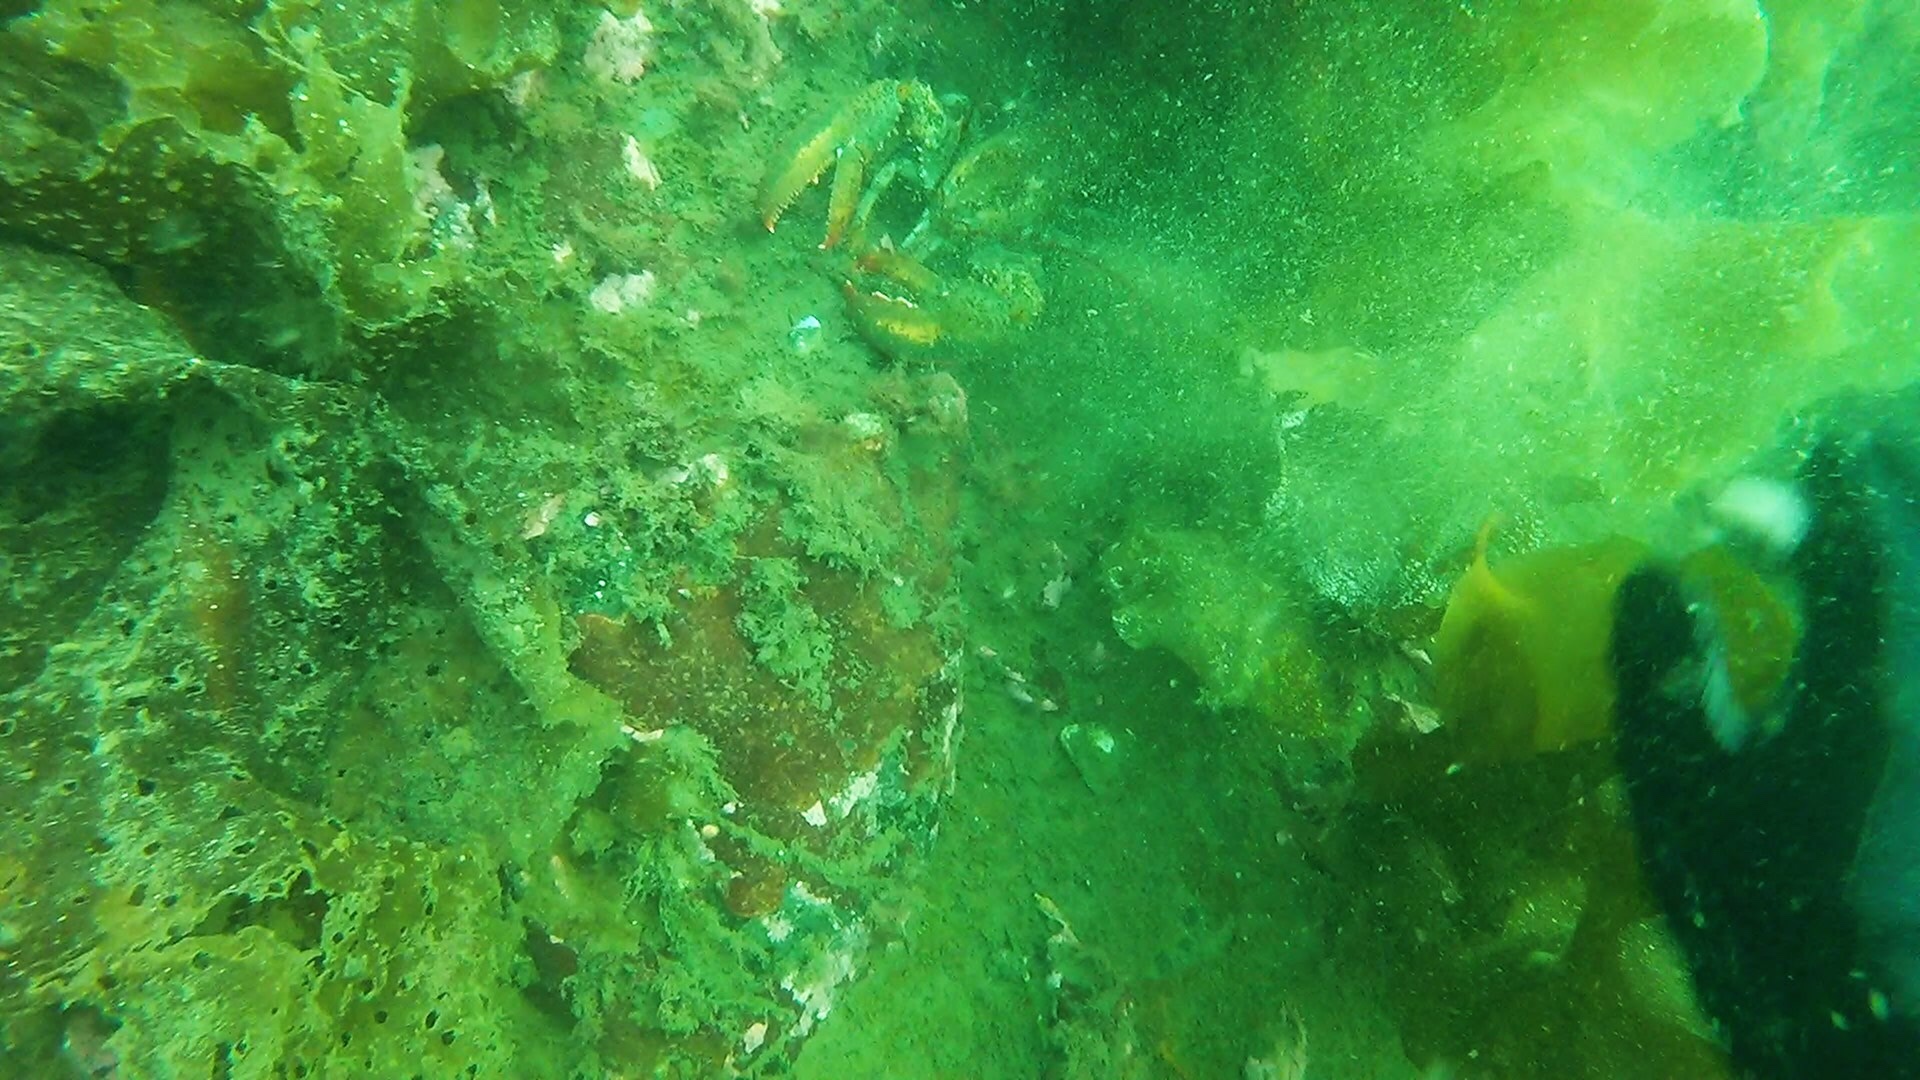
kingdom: Animalia
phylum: Arthropoda
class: Malacostraca
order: Decapoda
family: Nephropidae
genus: Homarus
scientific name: Homarus americanus
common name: American lobster
